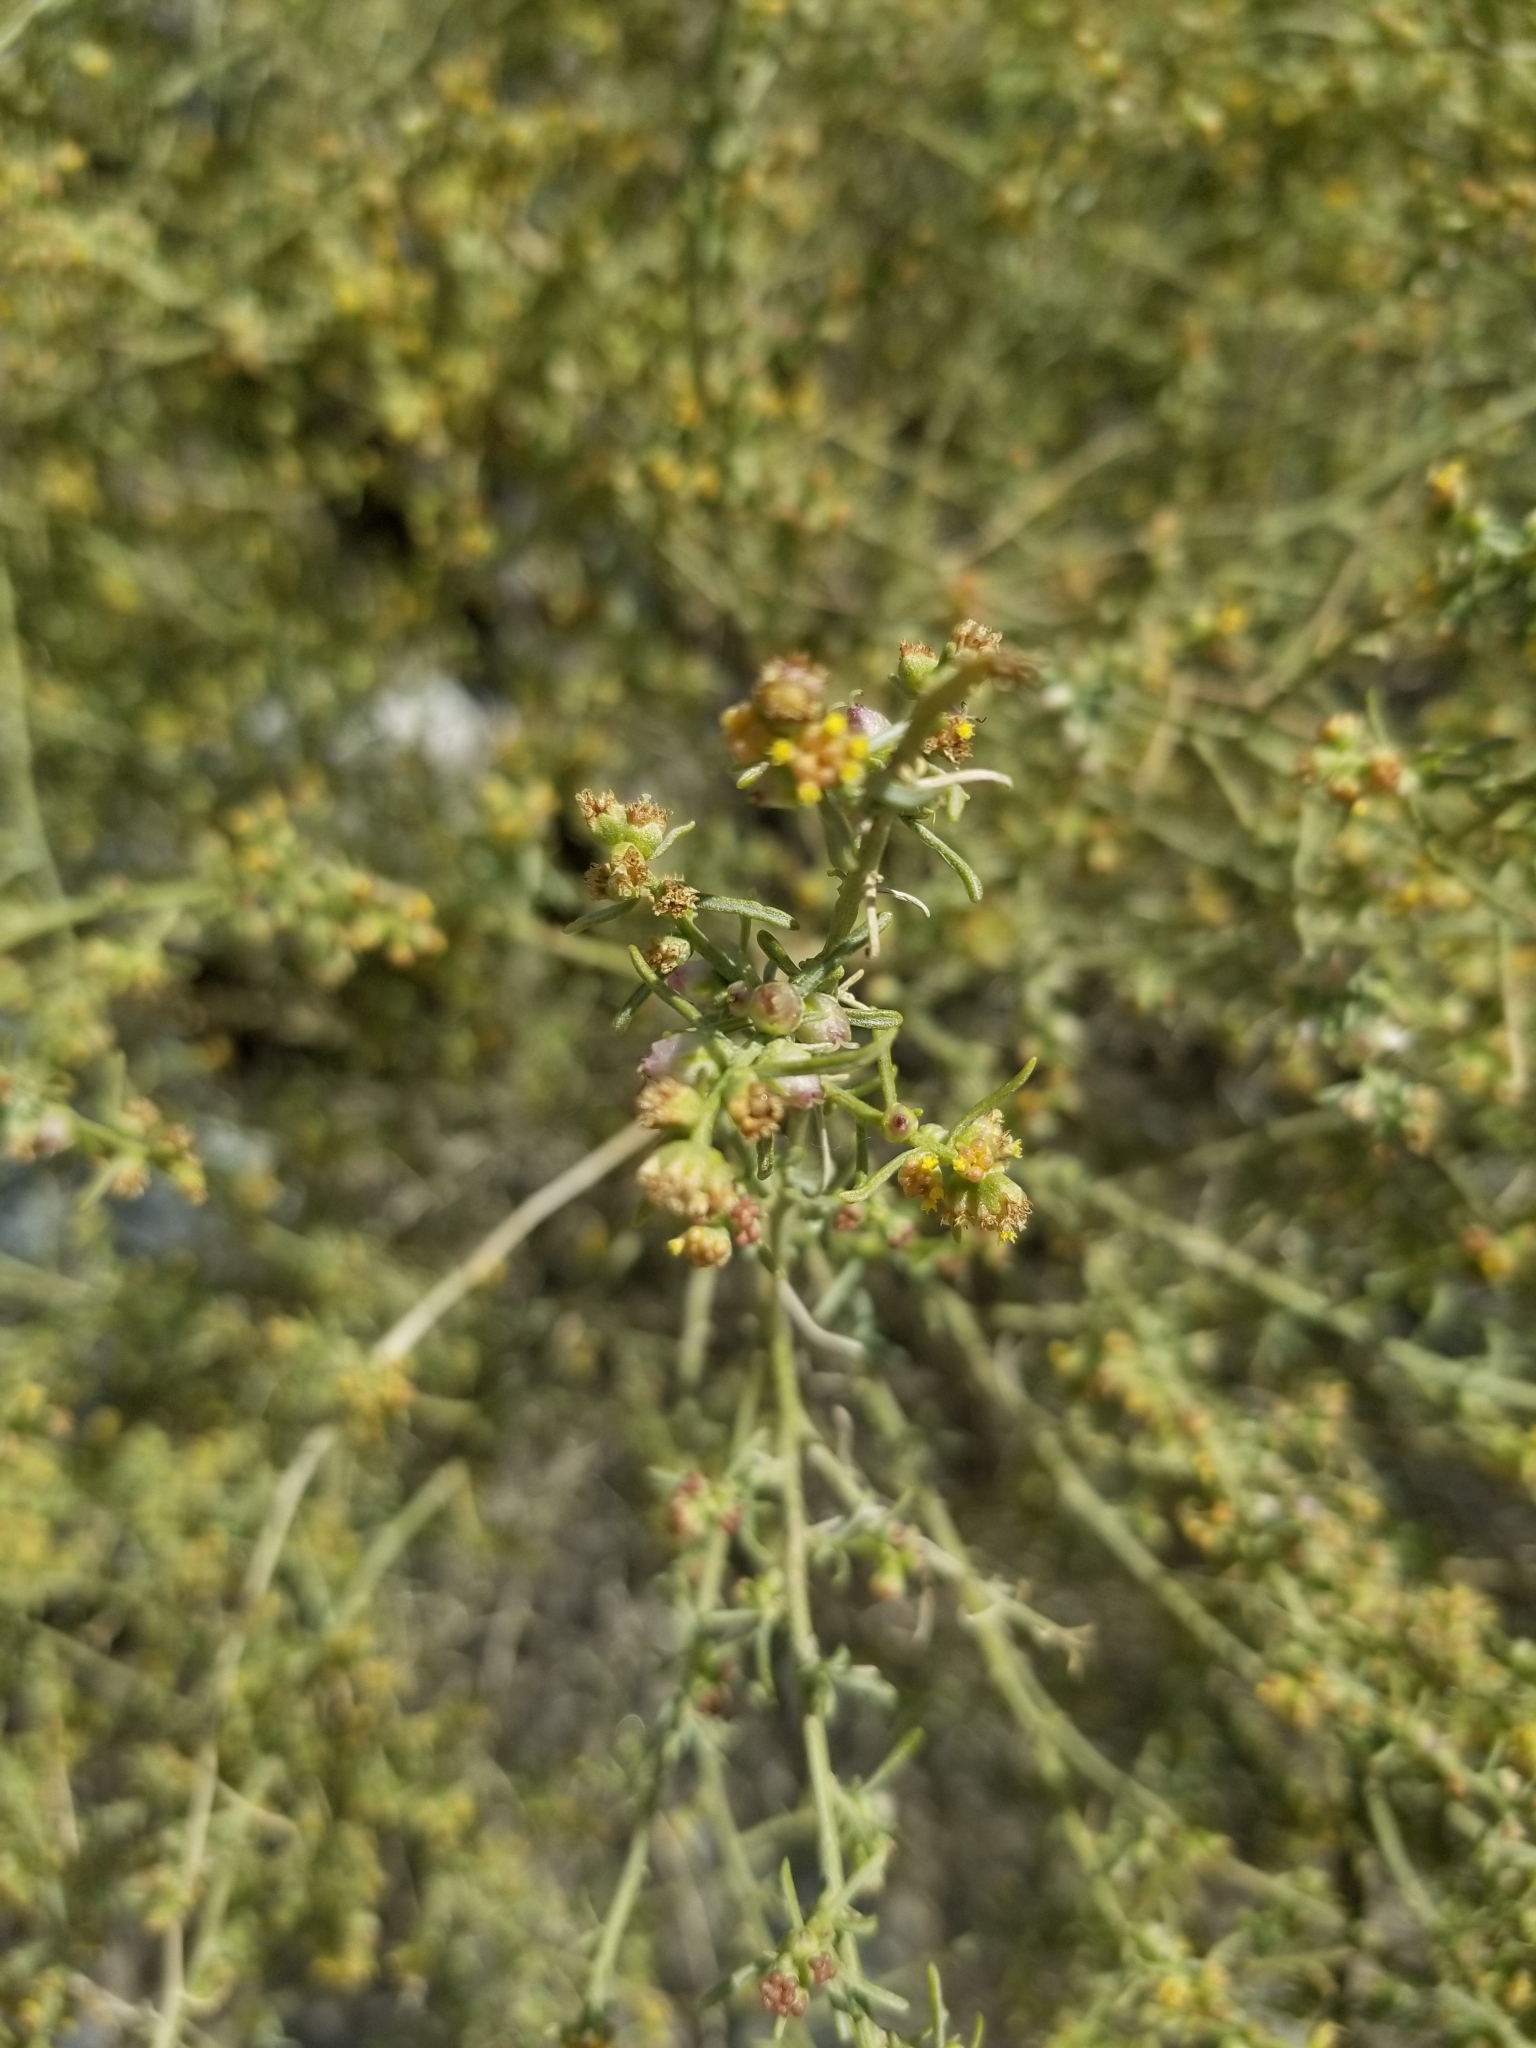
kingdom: Plantae
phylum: Tracheophyta
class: Magnoliopsida
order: Asterales
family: Asteraceae
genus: Ambrosia
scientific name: Ambrosia salsola
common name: Burrobrush
